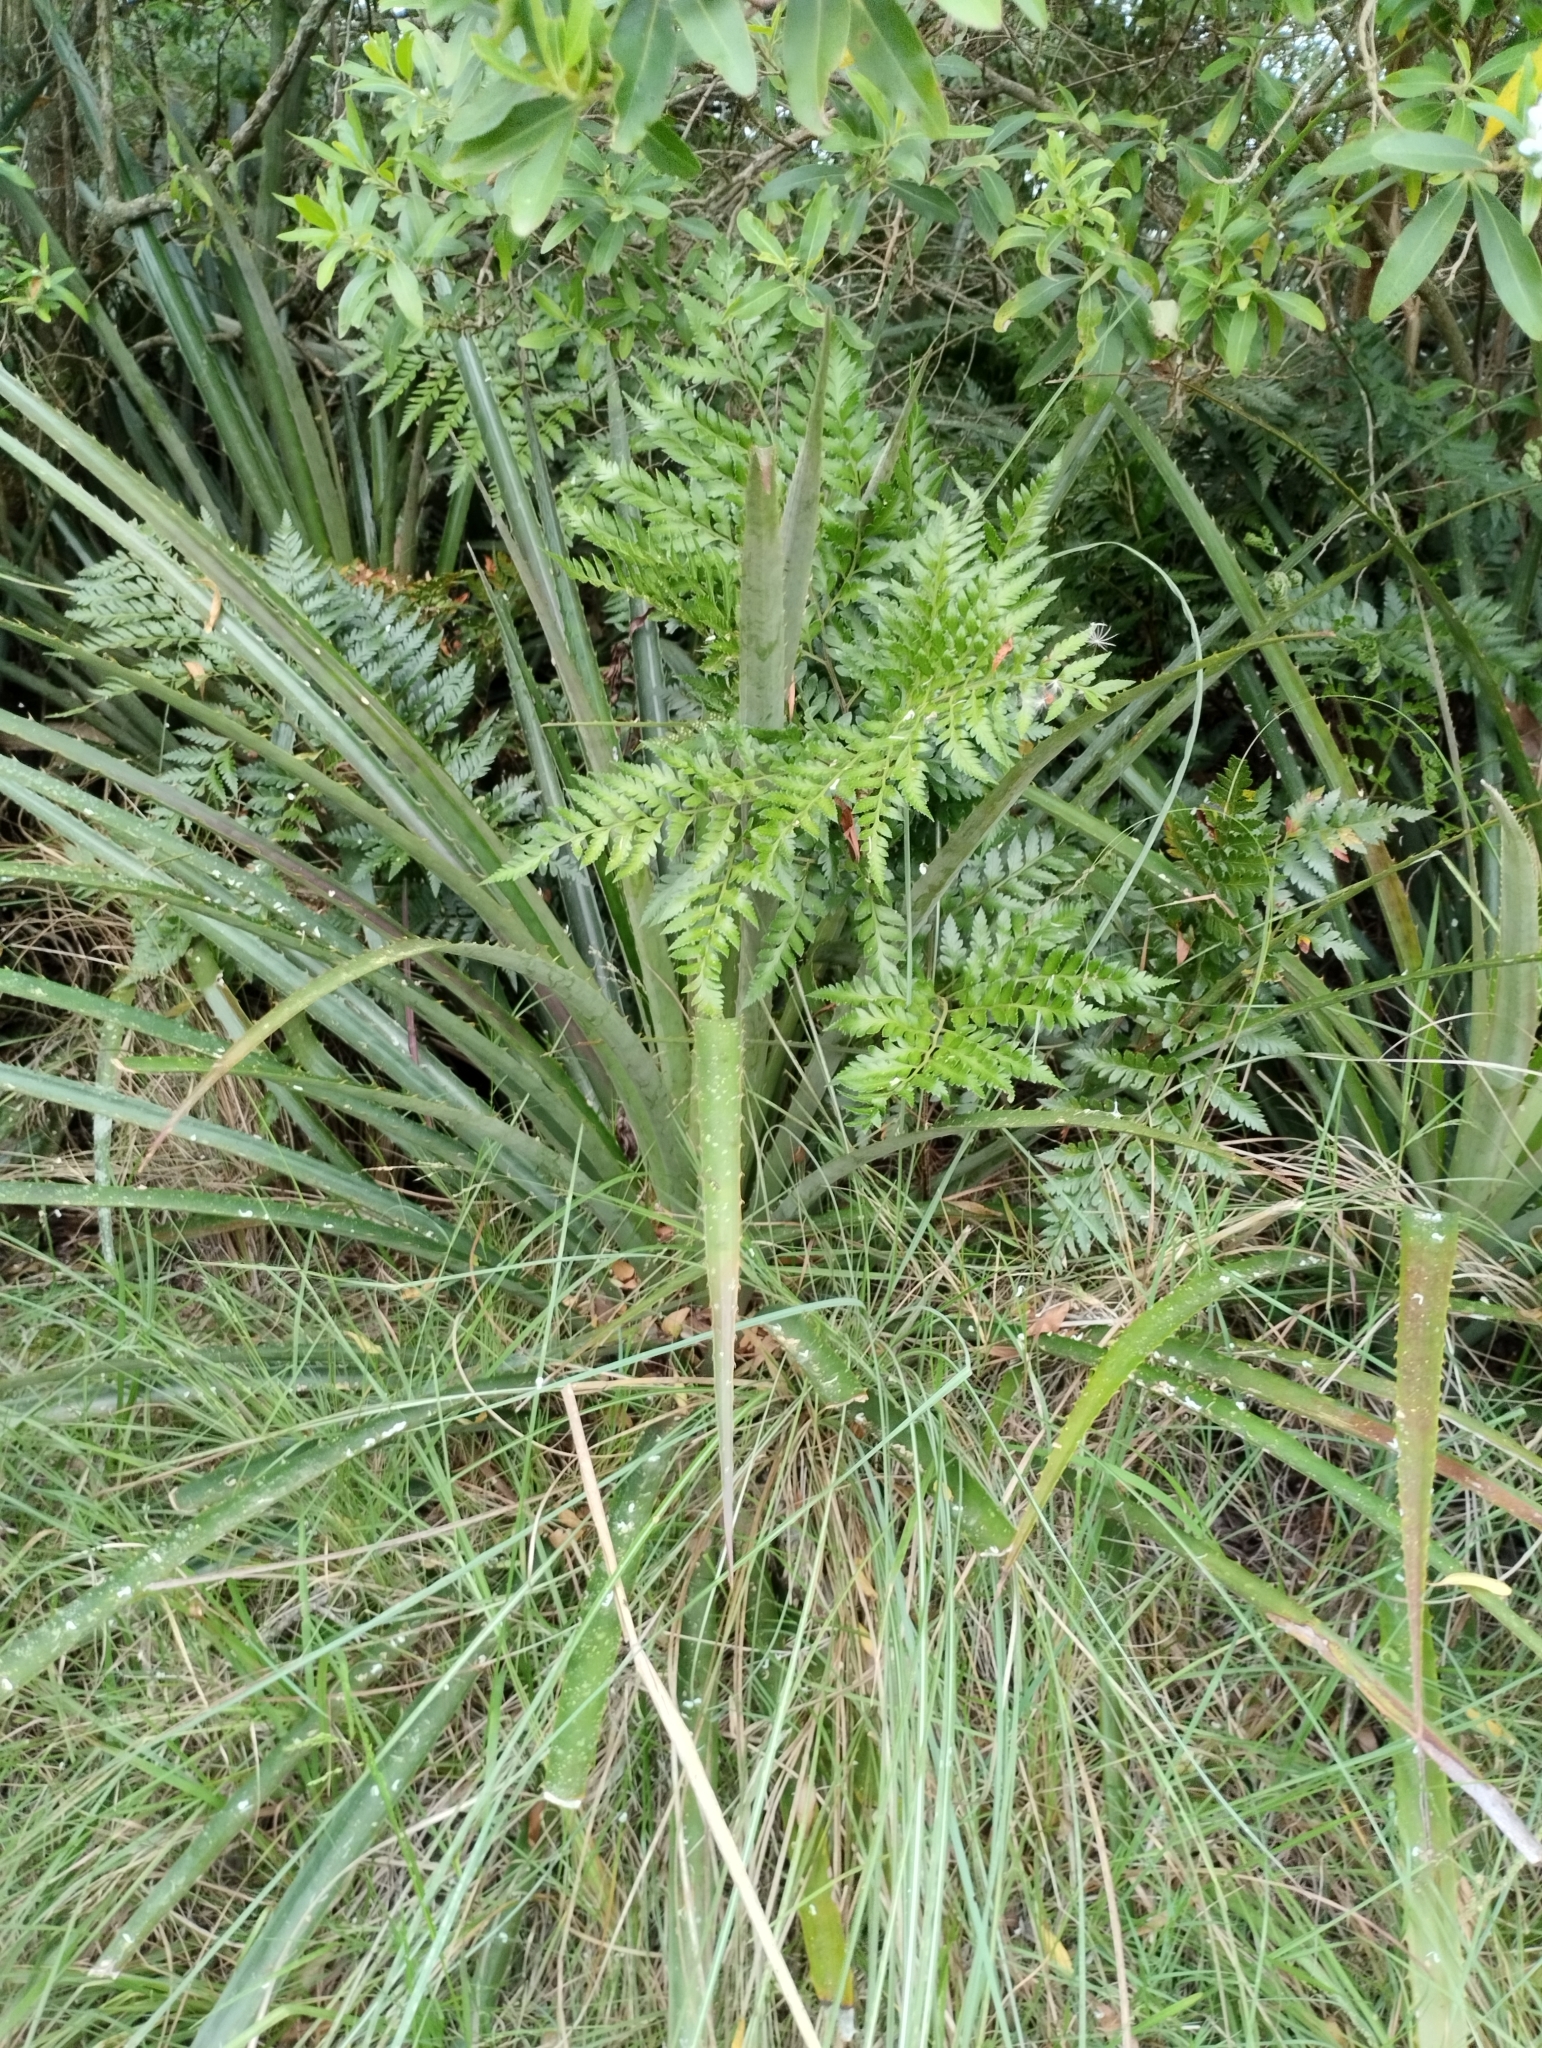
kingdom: Plantae
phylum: Tracheophyta
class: Polypodiopsida
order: Polypodiales
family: Dryopteridaceae
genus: Rumohra
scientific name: Rumohra adiantiformis
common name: Leather fern
